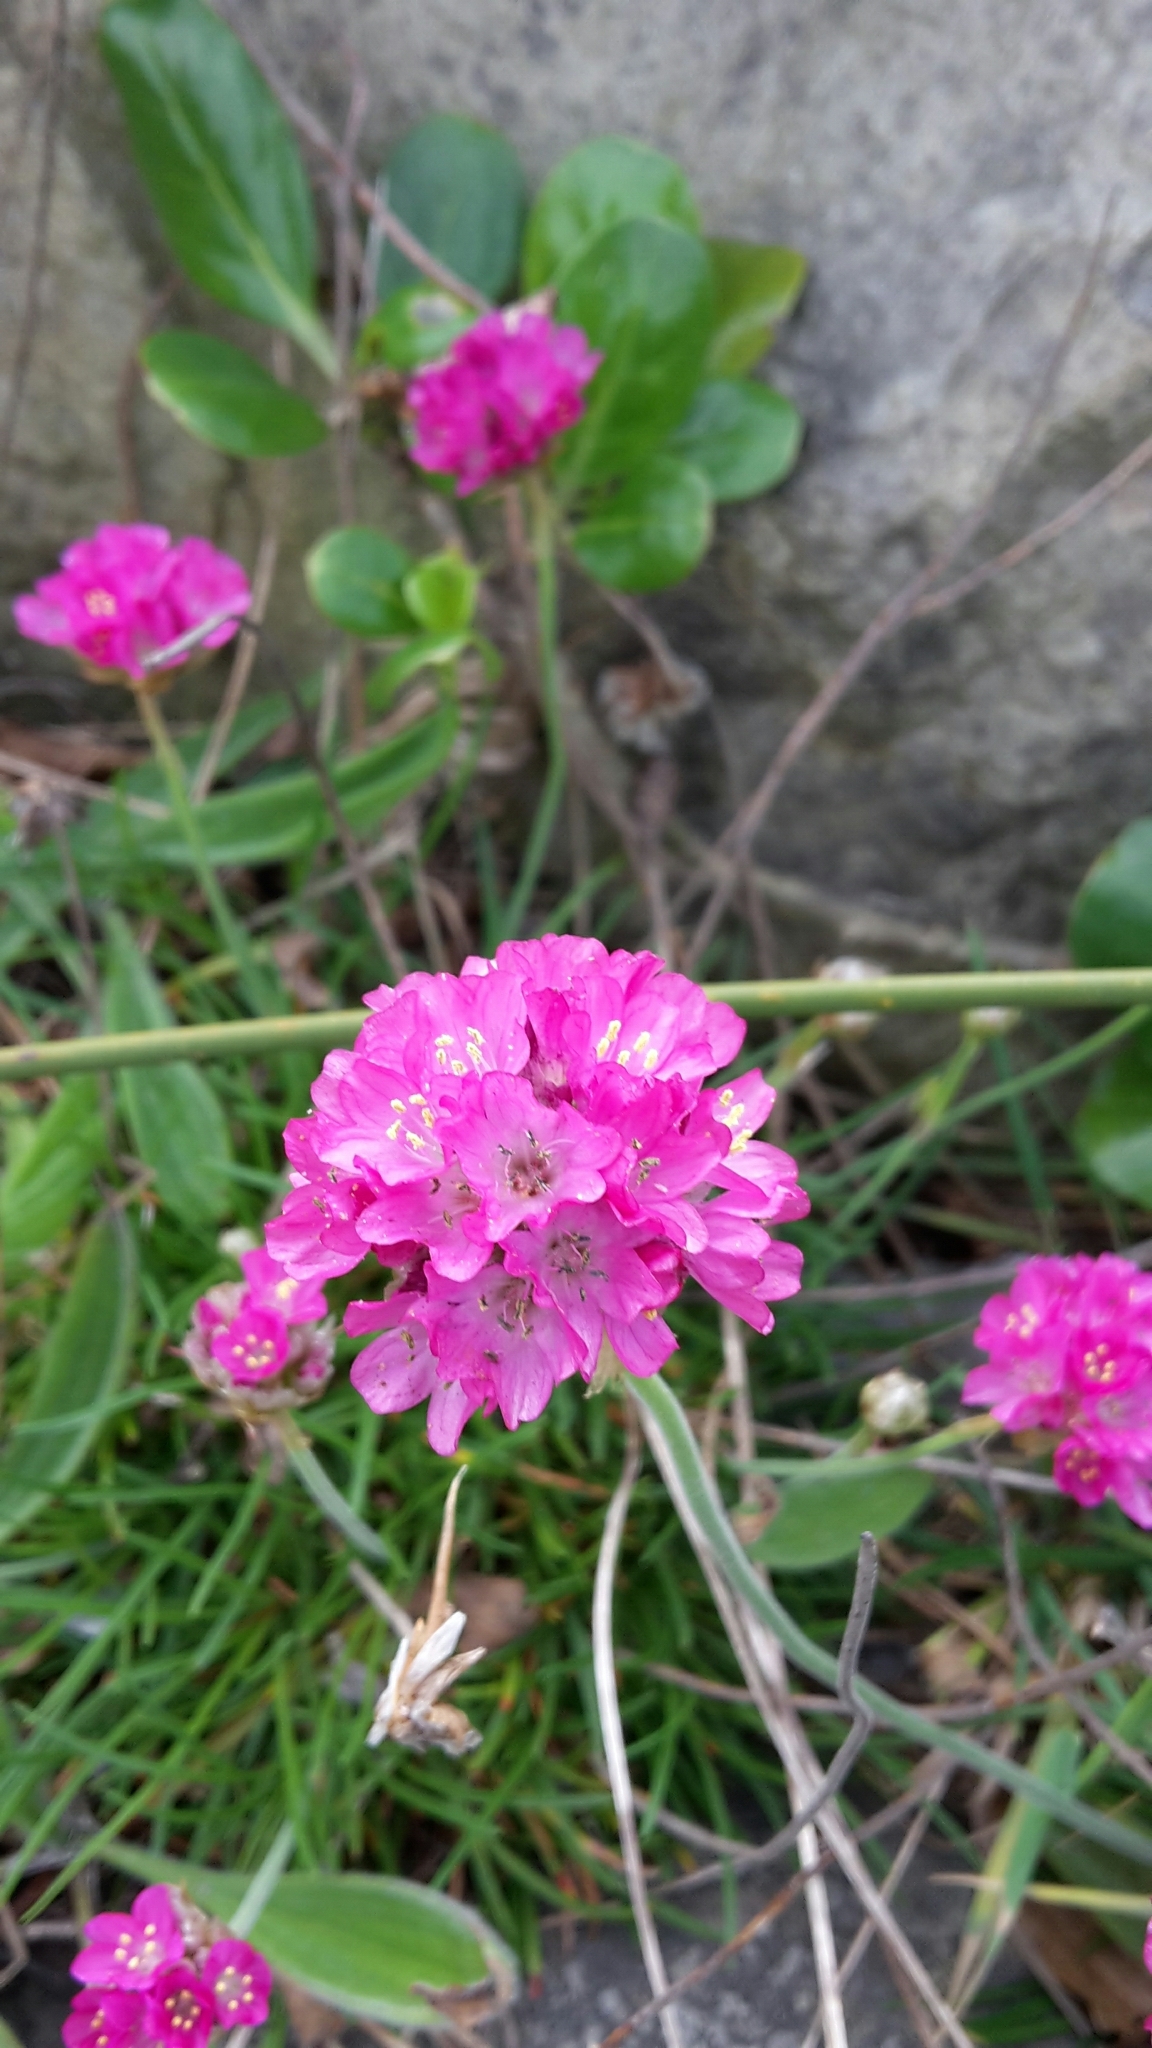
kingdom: Plantae
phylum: Tracheophyta
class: Magnoliopsida
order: Caryophyllales
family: Plumbaginaceae
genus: Armeria
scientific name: Armeria maritima
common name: Thrift
